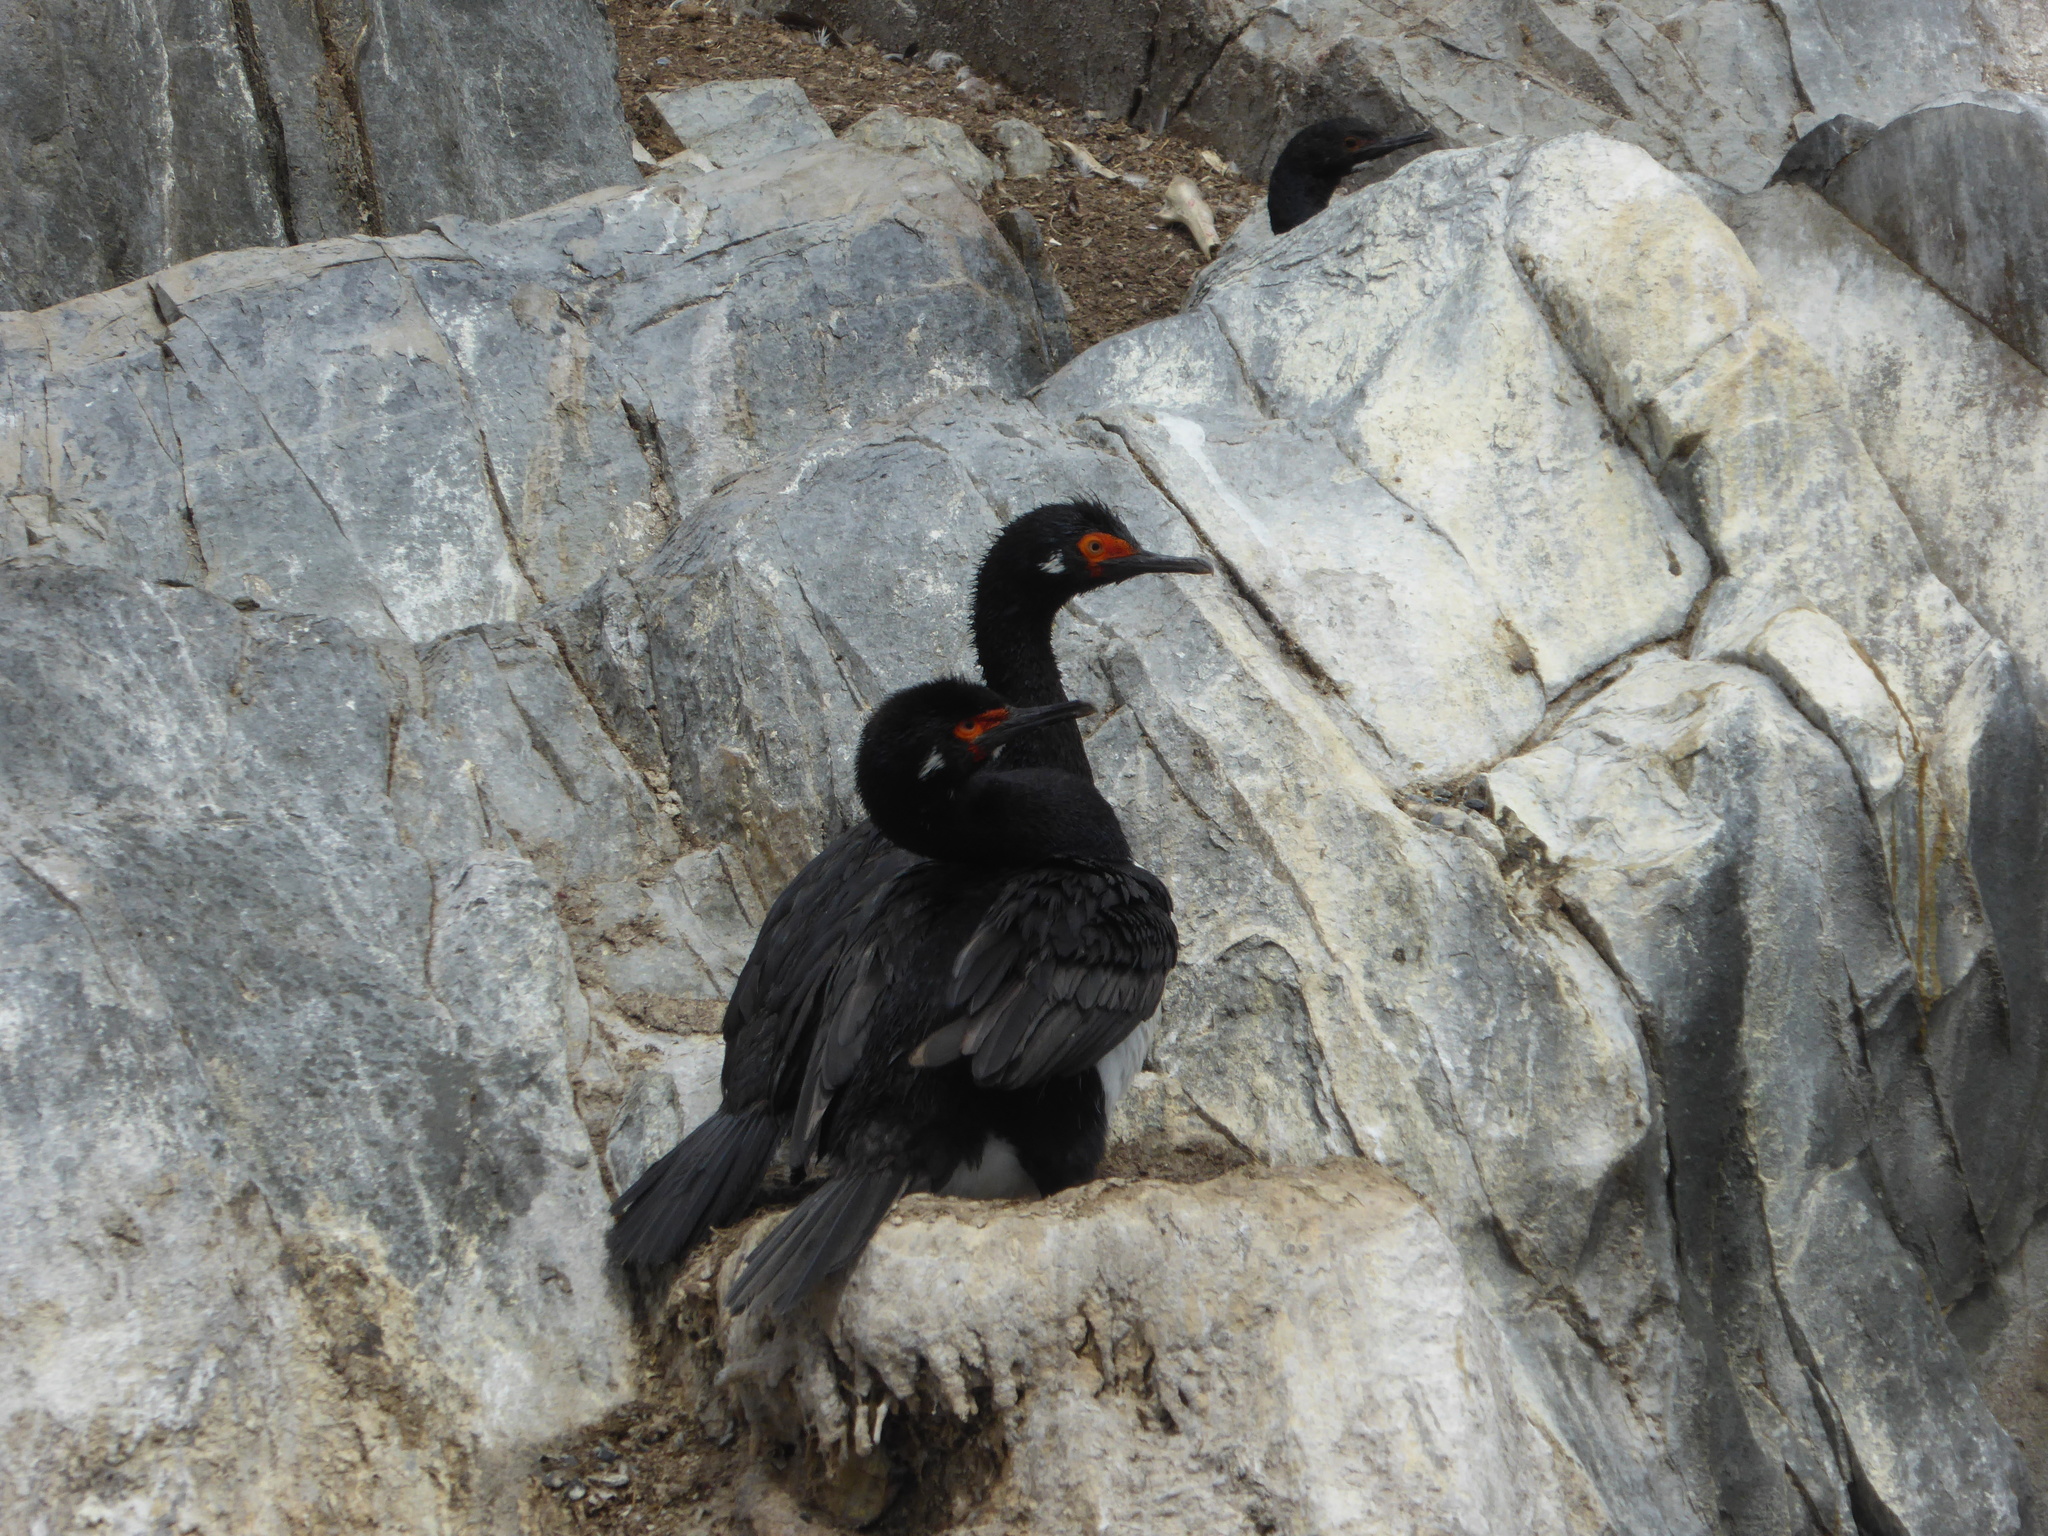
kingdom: Animalia
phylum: Chordata
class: Aves
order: Suliformes
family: Phalacrocoracidae
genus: Phalacrocorax
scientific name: Phalacrocorax magellanicus
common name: Rock shag
